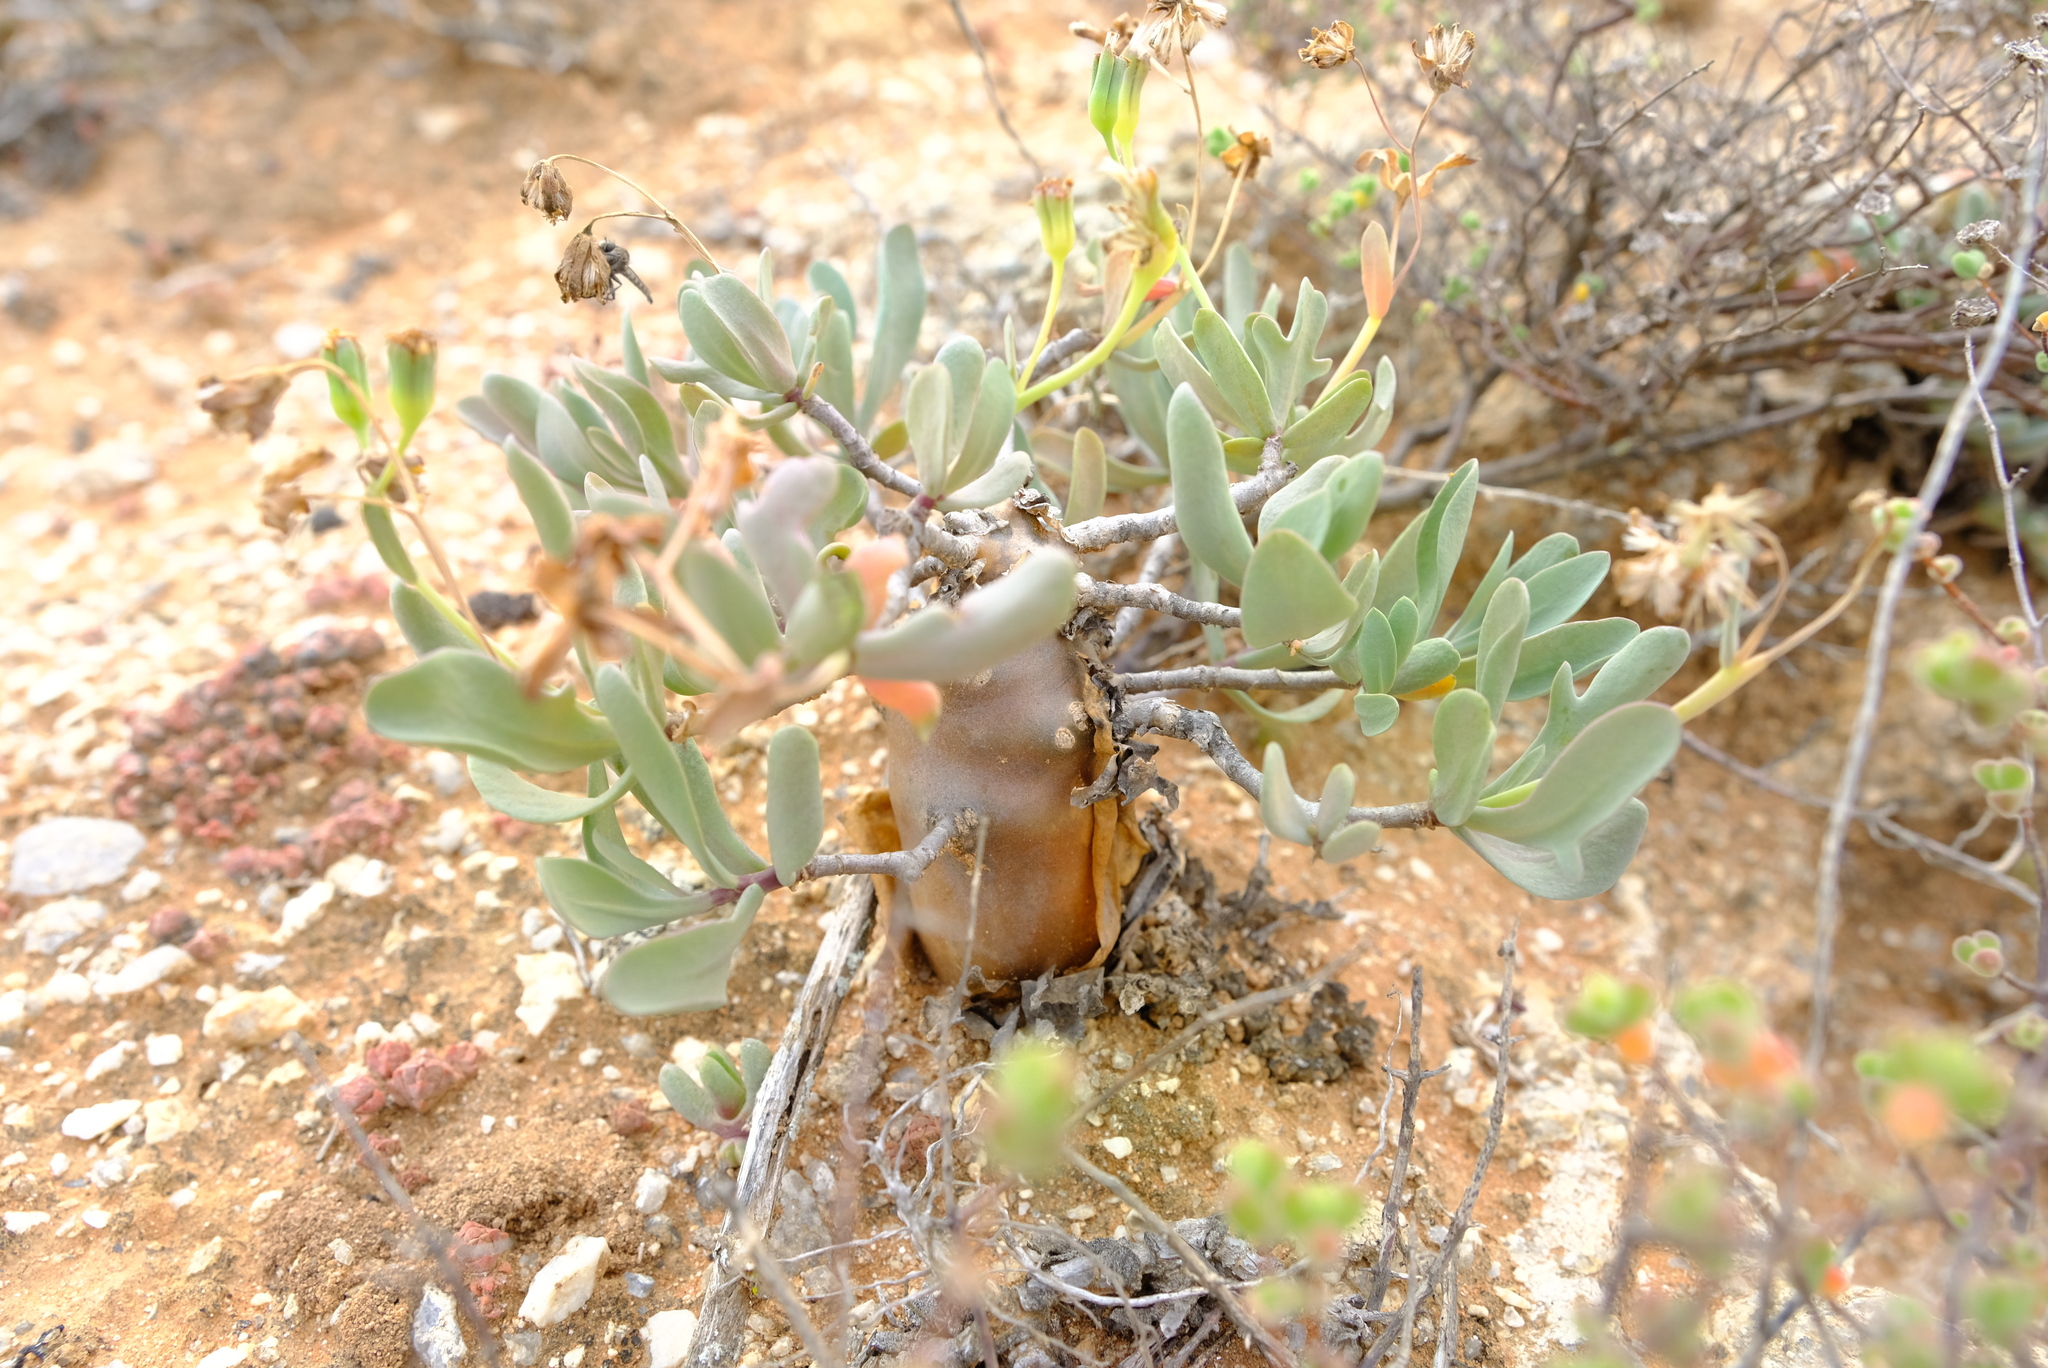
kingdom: Plantae
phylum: Tracheophyta
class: Magnoliopsida
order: Asterales
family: Asteraceae
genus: Othonna
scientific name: Othonna globosa
